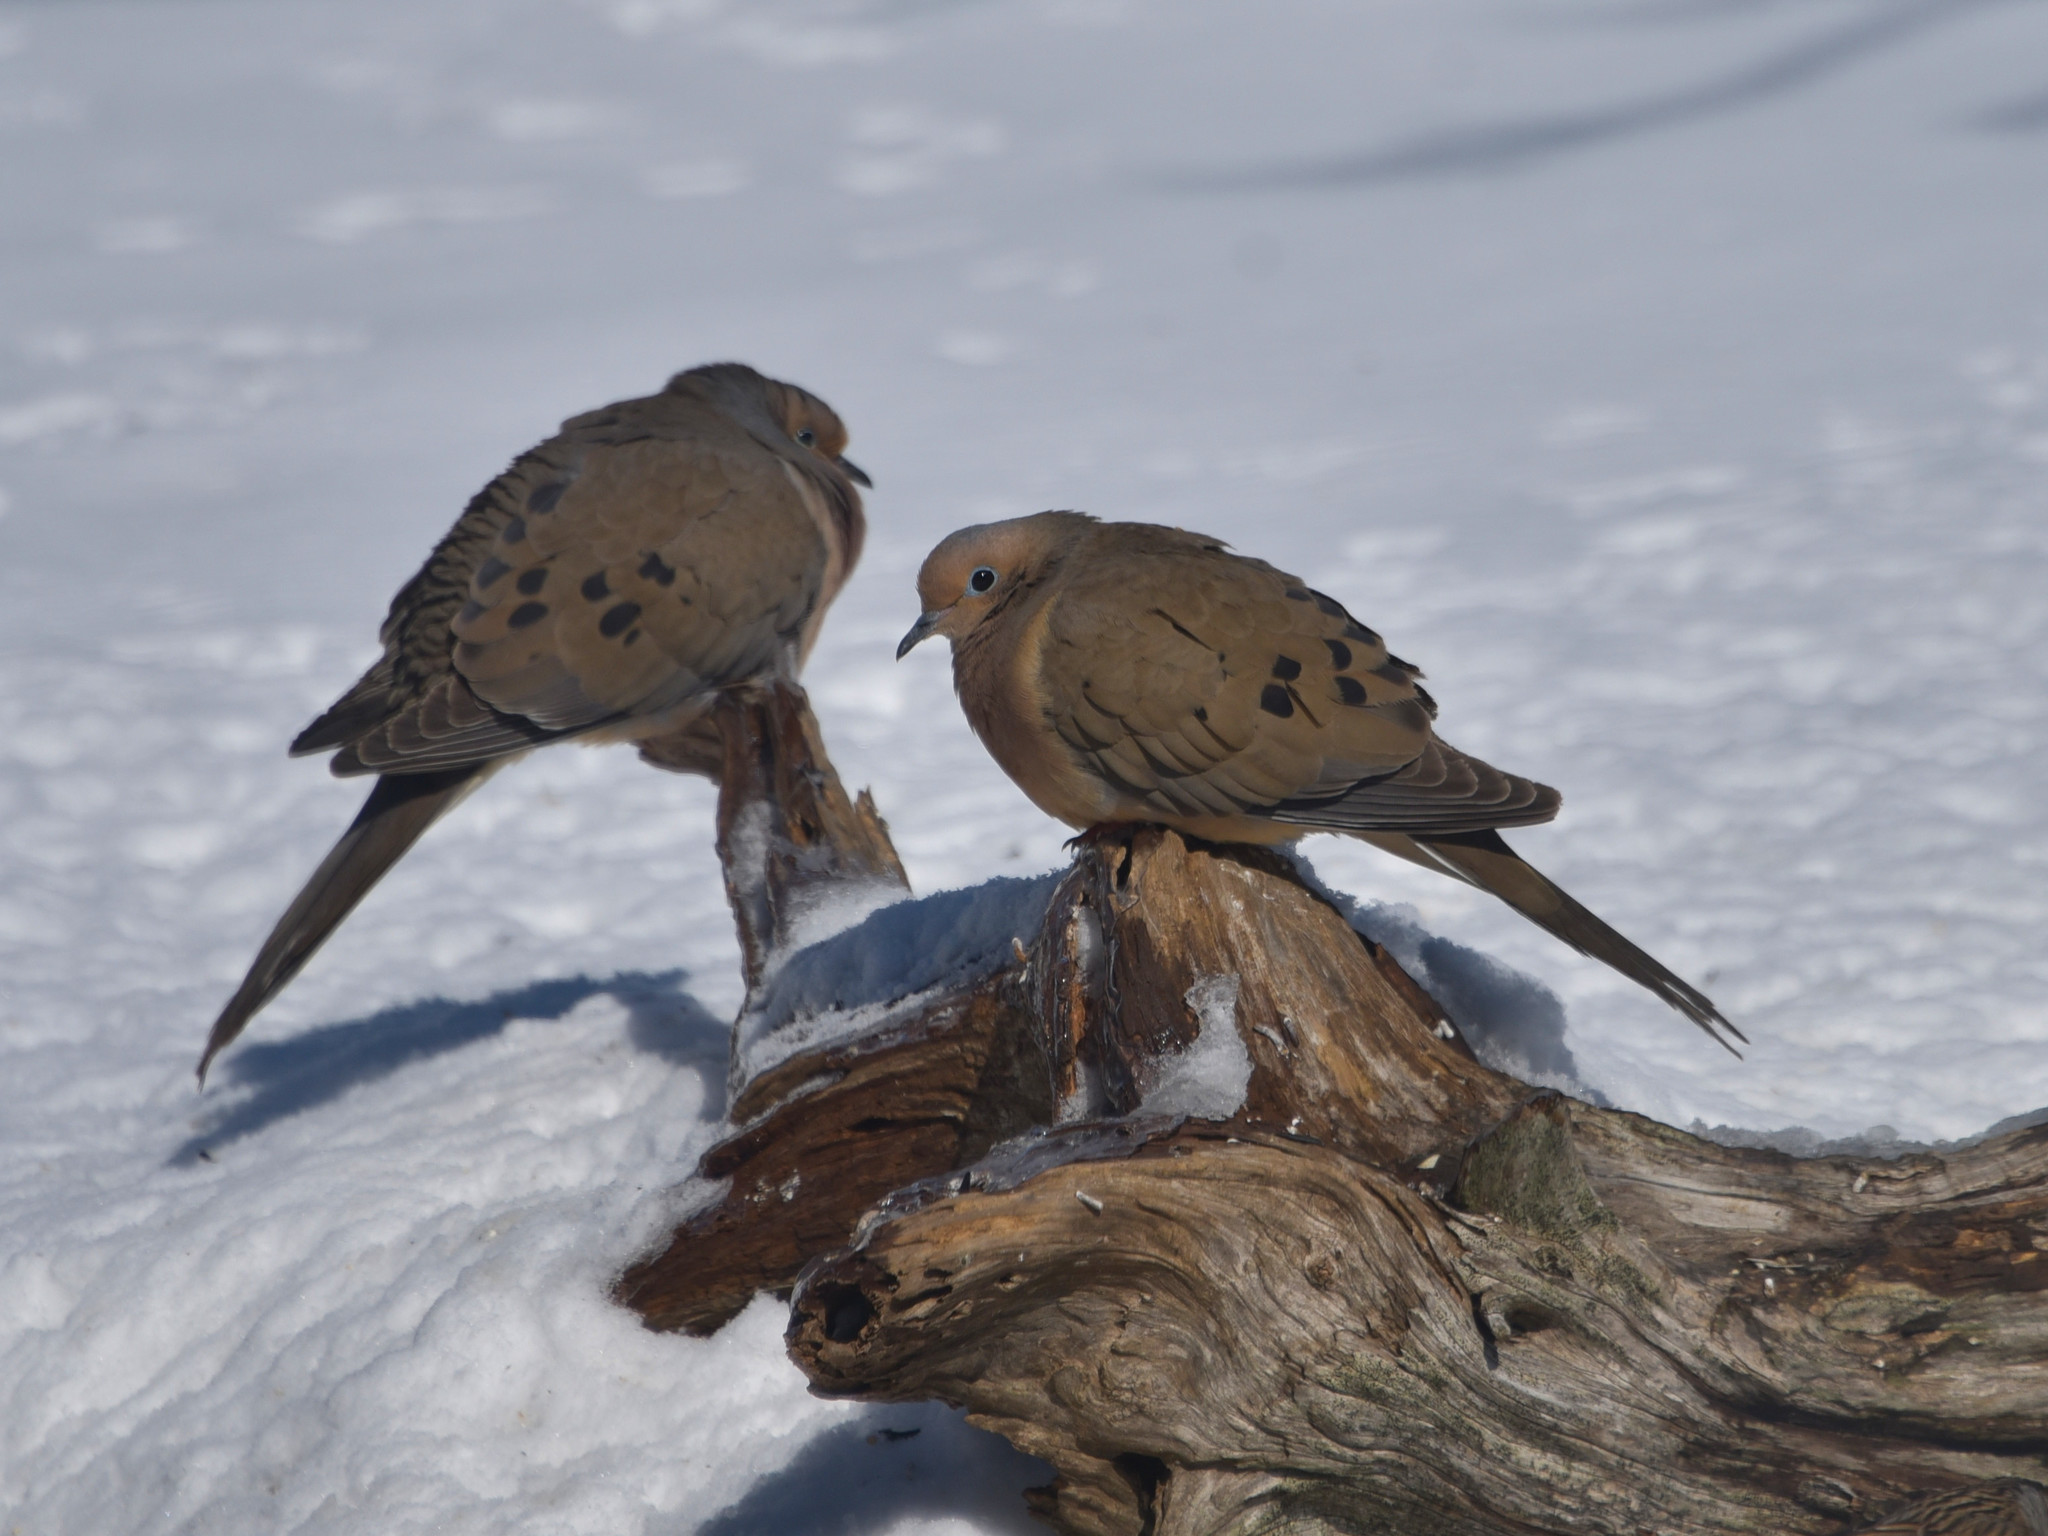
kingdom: Animalia
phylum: Chordata
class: Aves
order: Columbiformes
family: Columbidae
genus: Zenaida
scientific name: Zenaida macroura
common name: Mourning dove
